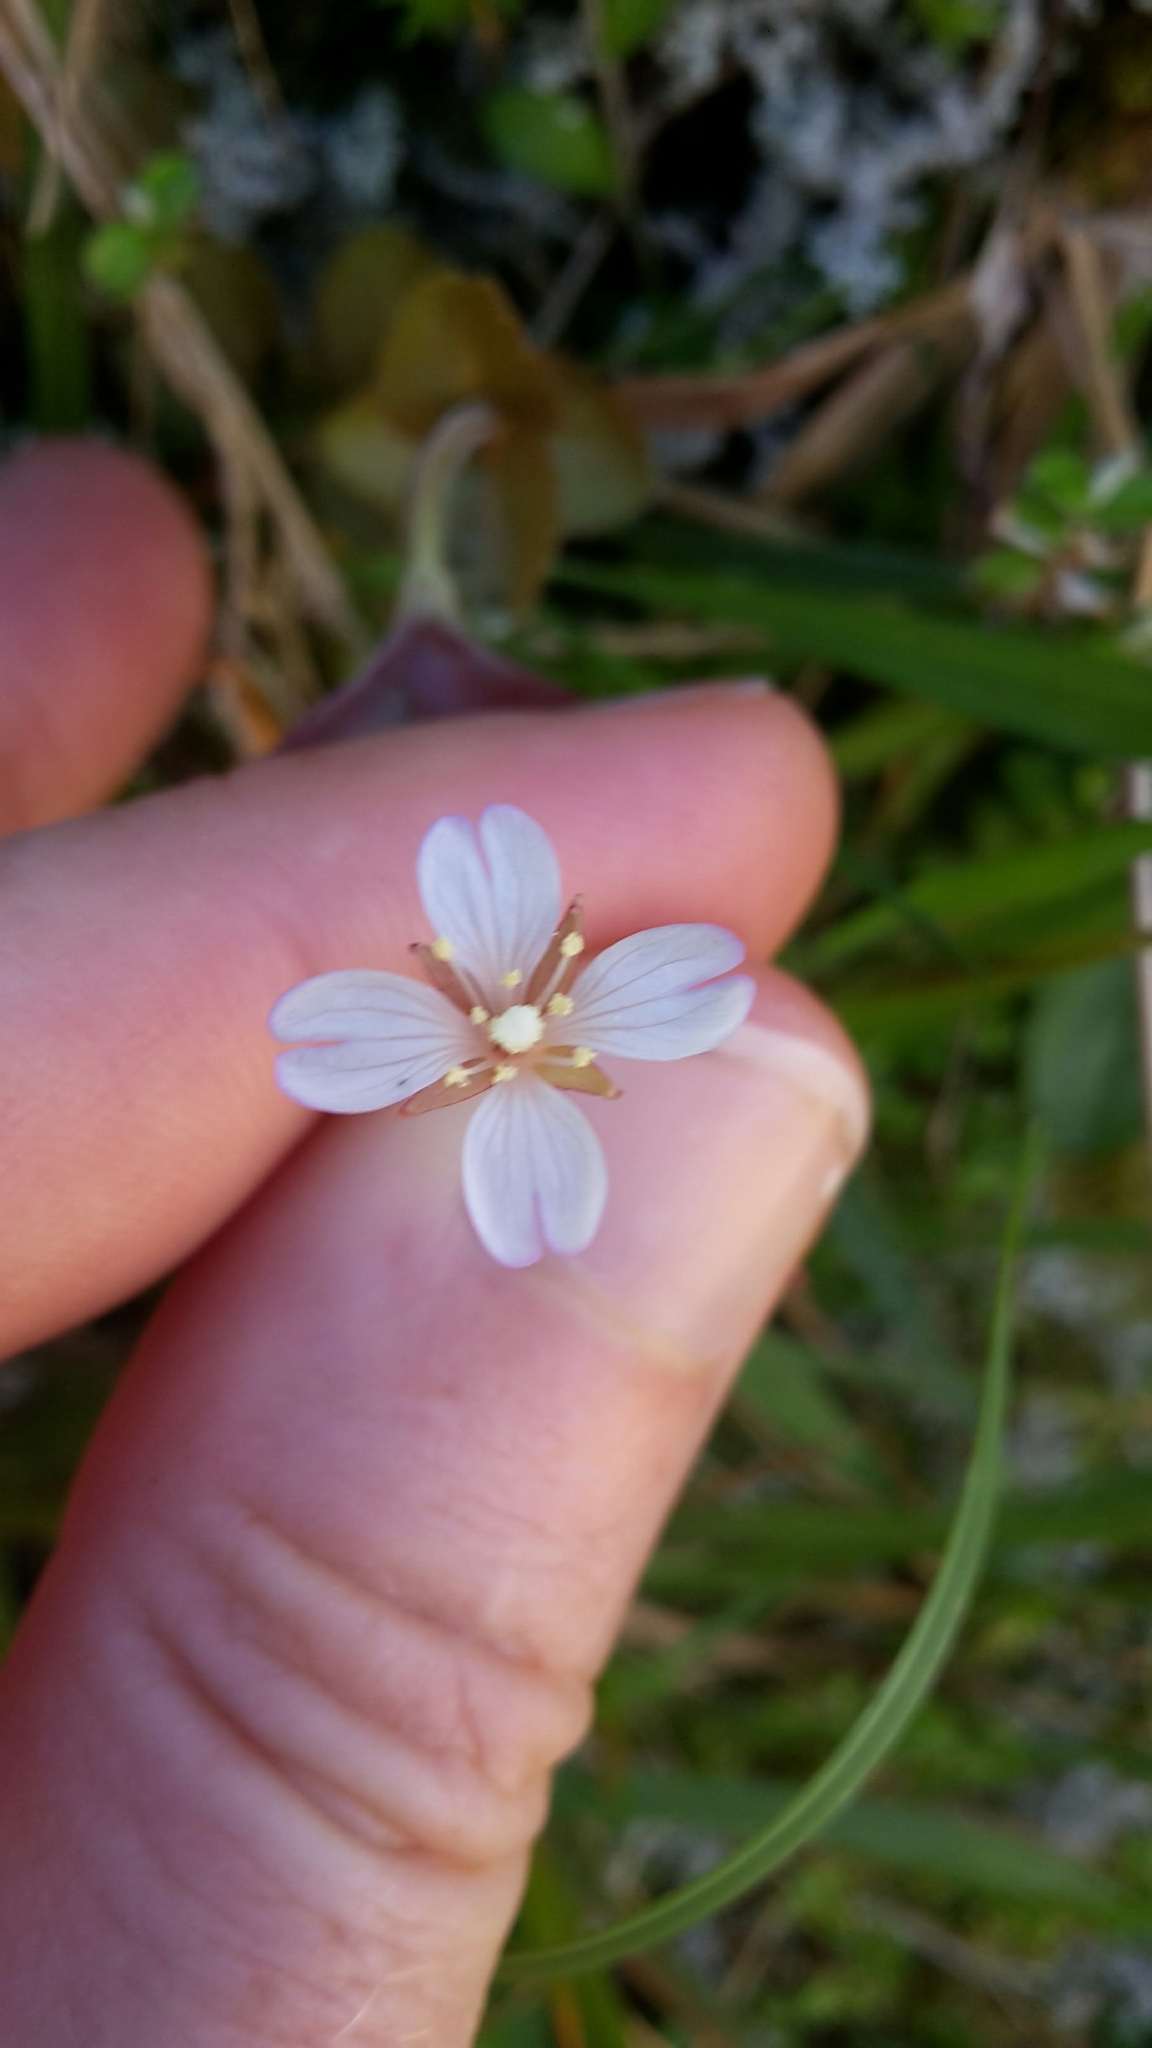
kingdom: Plantae
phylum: Tracheophyta
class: Magnoliopsida
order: Myrtales
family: Onagraceae
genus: Epilobium
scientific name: Epilobium rotundifolium
